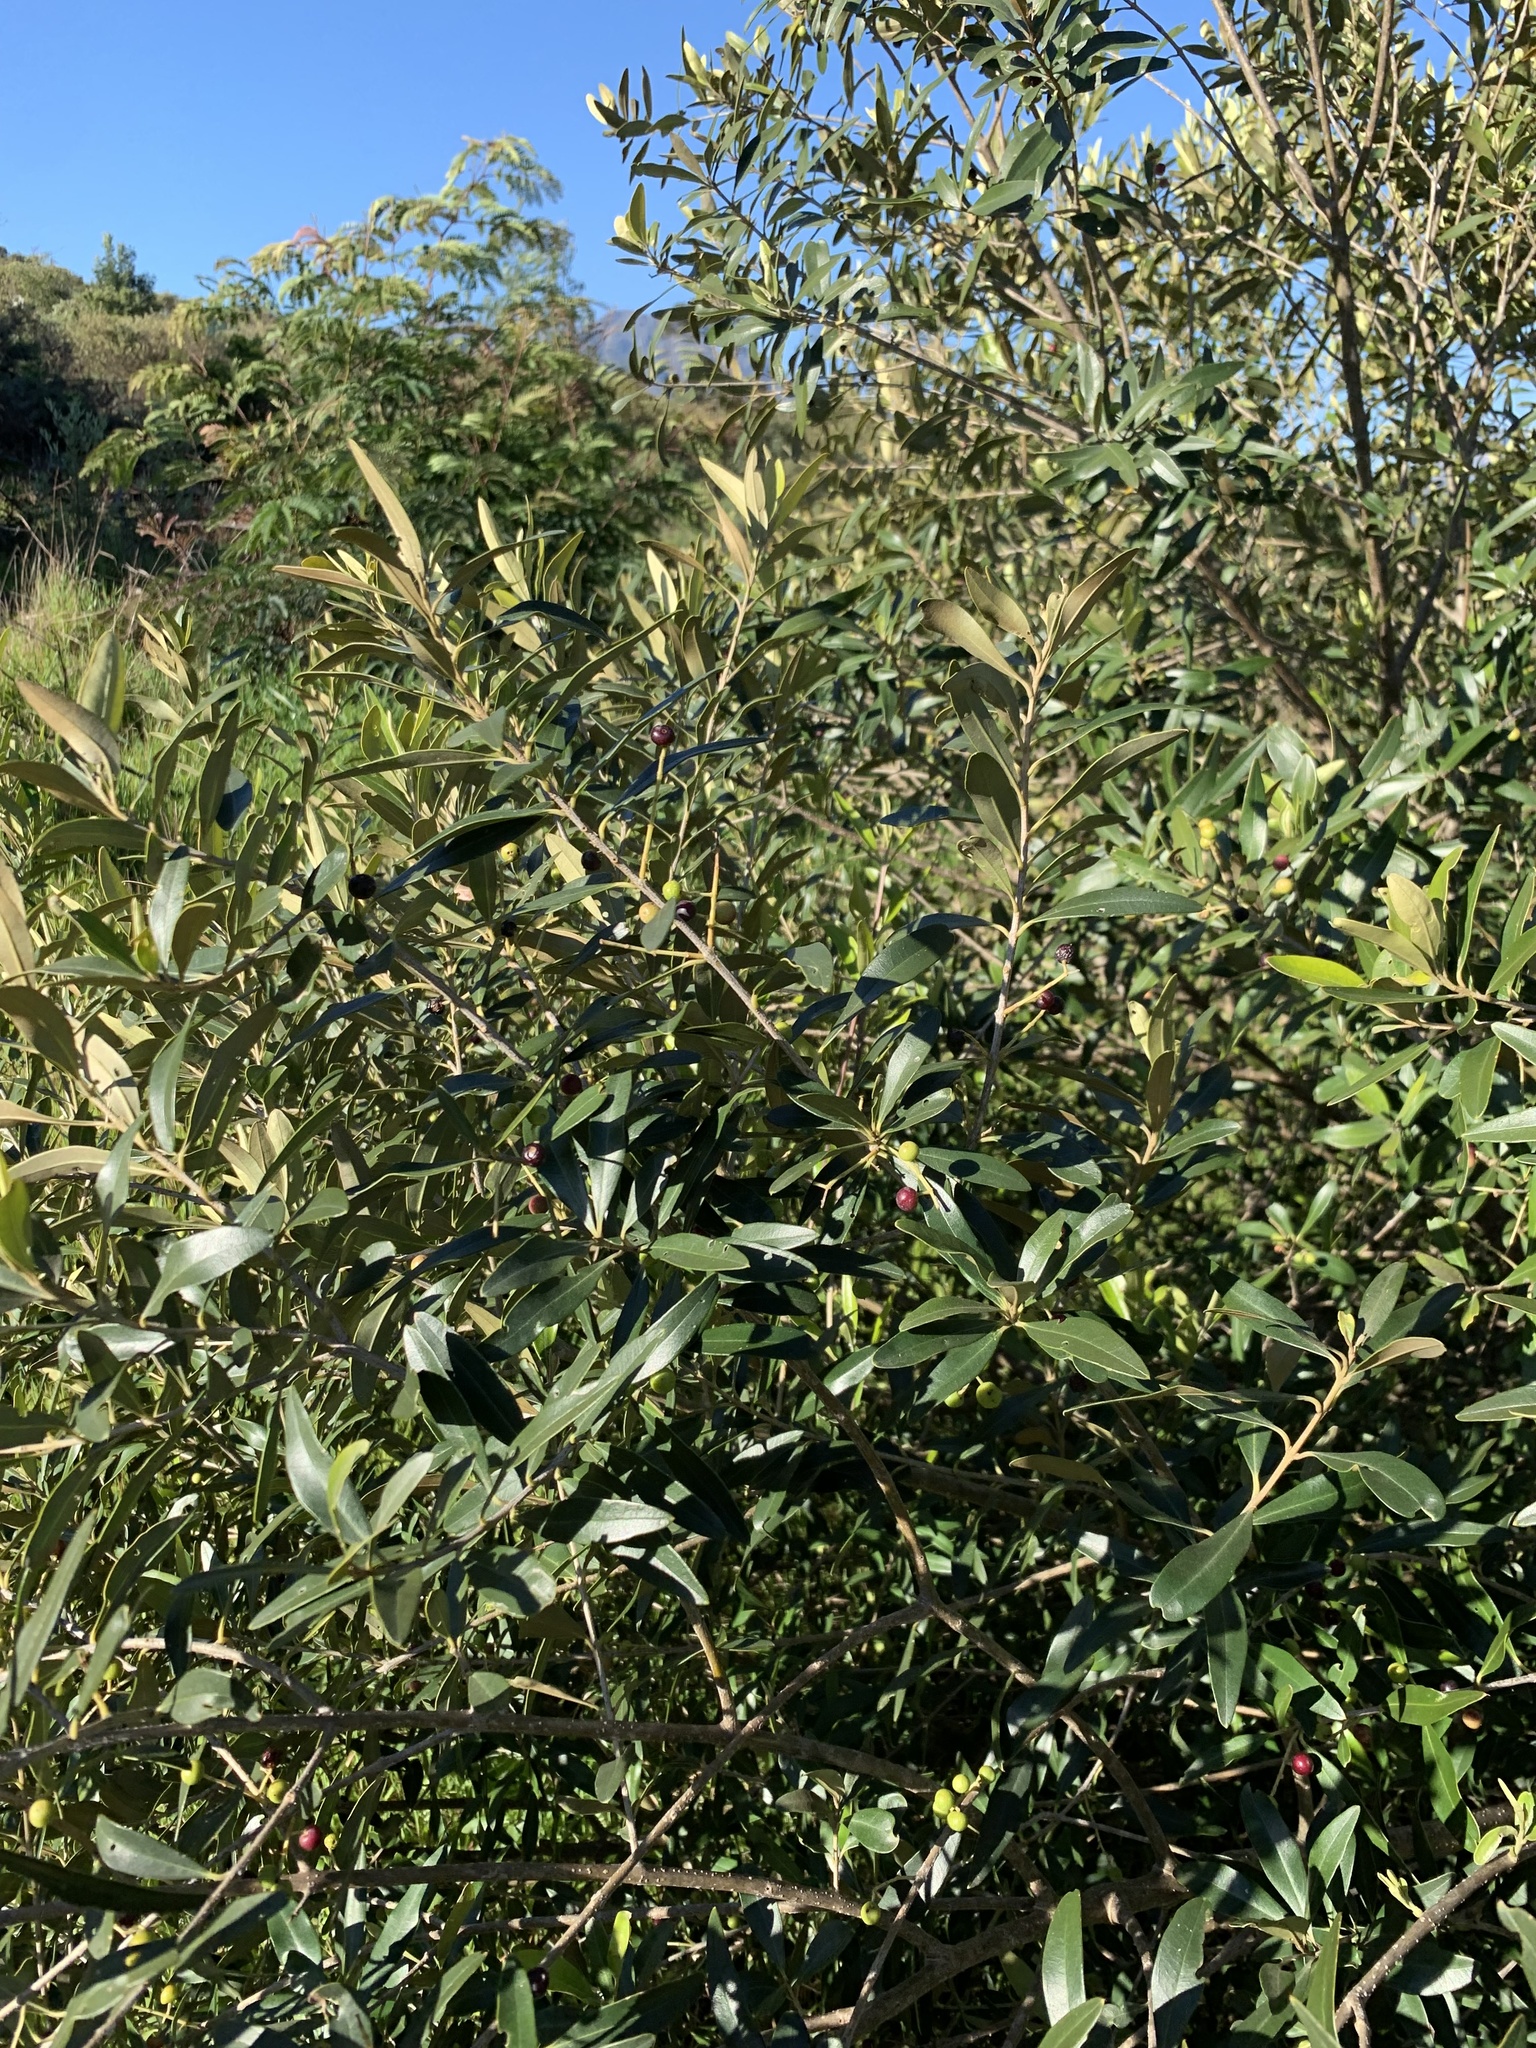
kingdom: Plantae
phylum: Tracheophyta
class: Magnoliopsida
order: Lamiales
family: Oleaceae
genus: Olea
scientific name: Olea europaea
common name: Olive
